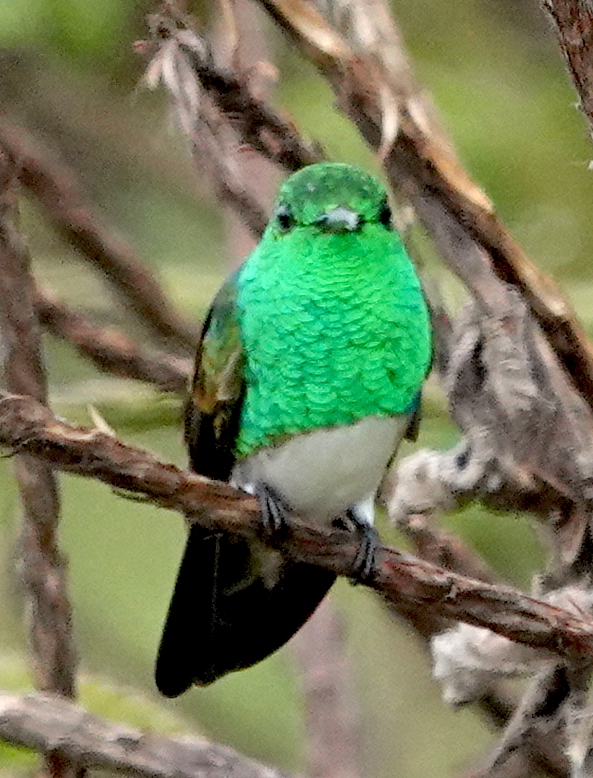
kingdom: Animalia
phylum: Chordata
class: Aves
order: Apodiformes
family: Trochilidae
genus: Saucerottia
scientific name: Saucerottia edward
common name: Snowy-bellied hummingbird
